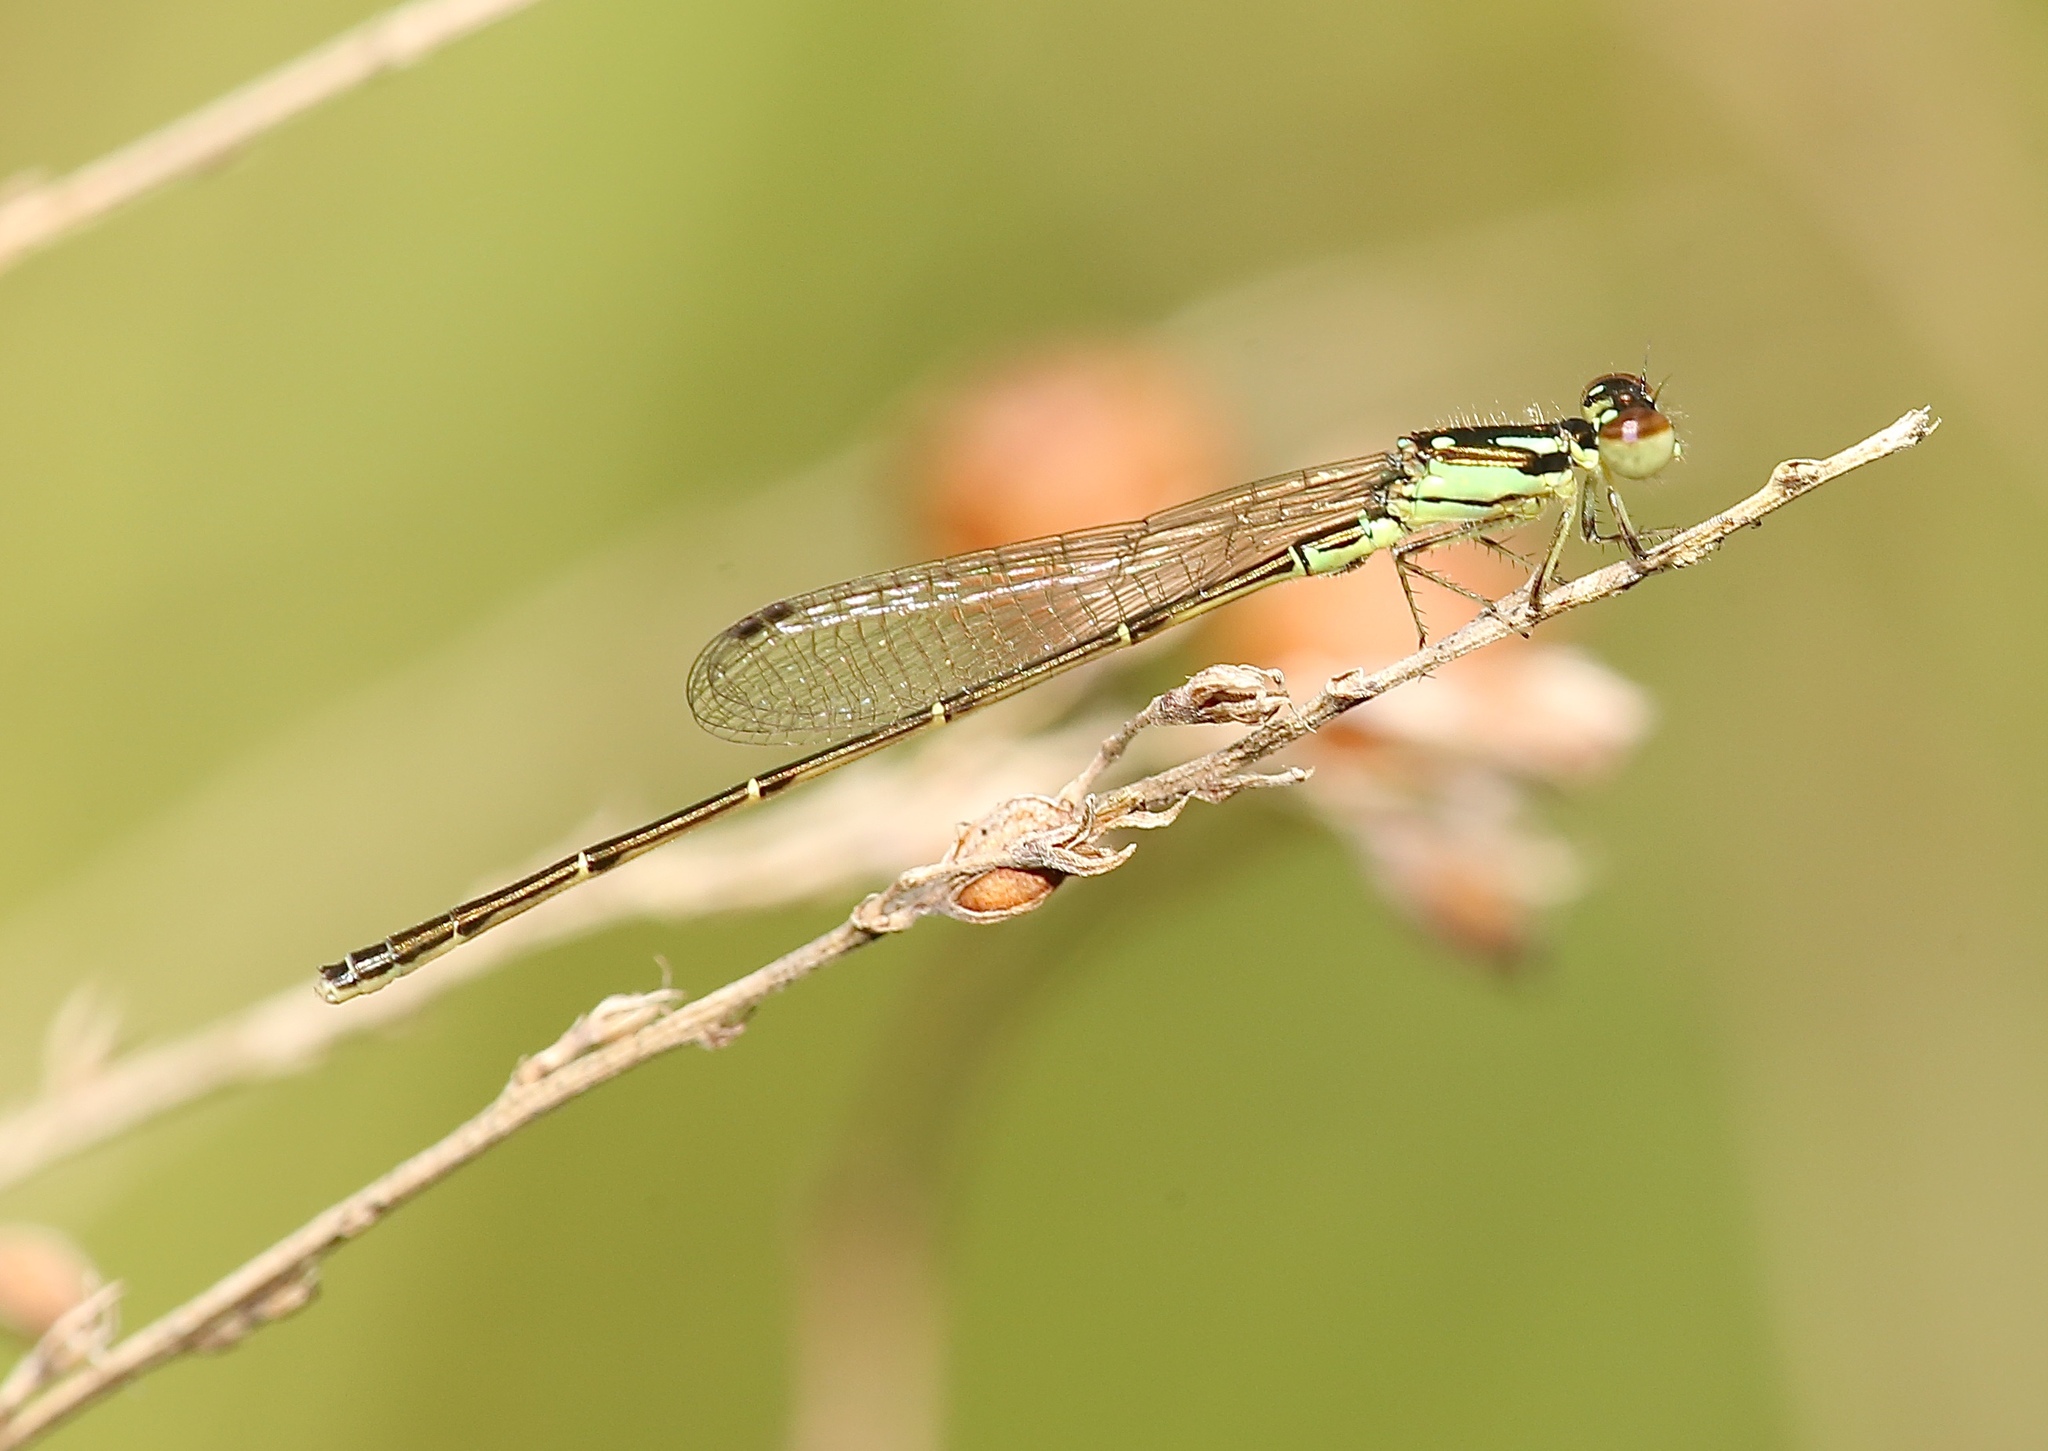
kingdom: Animalia
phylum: Arthropoda
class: Insecta
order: Odonata
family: Coenagrionidae
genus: Ischnura
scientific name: Ischnura posita
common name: Fragile forktail
